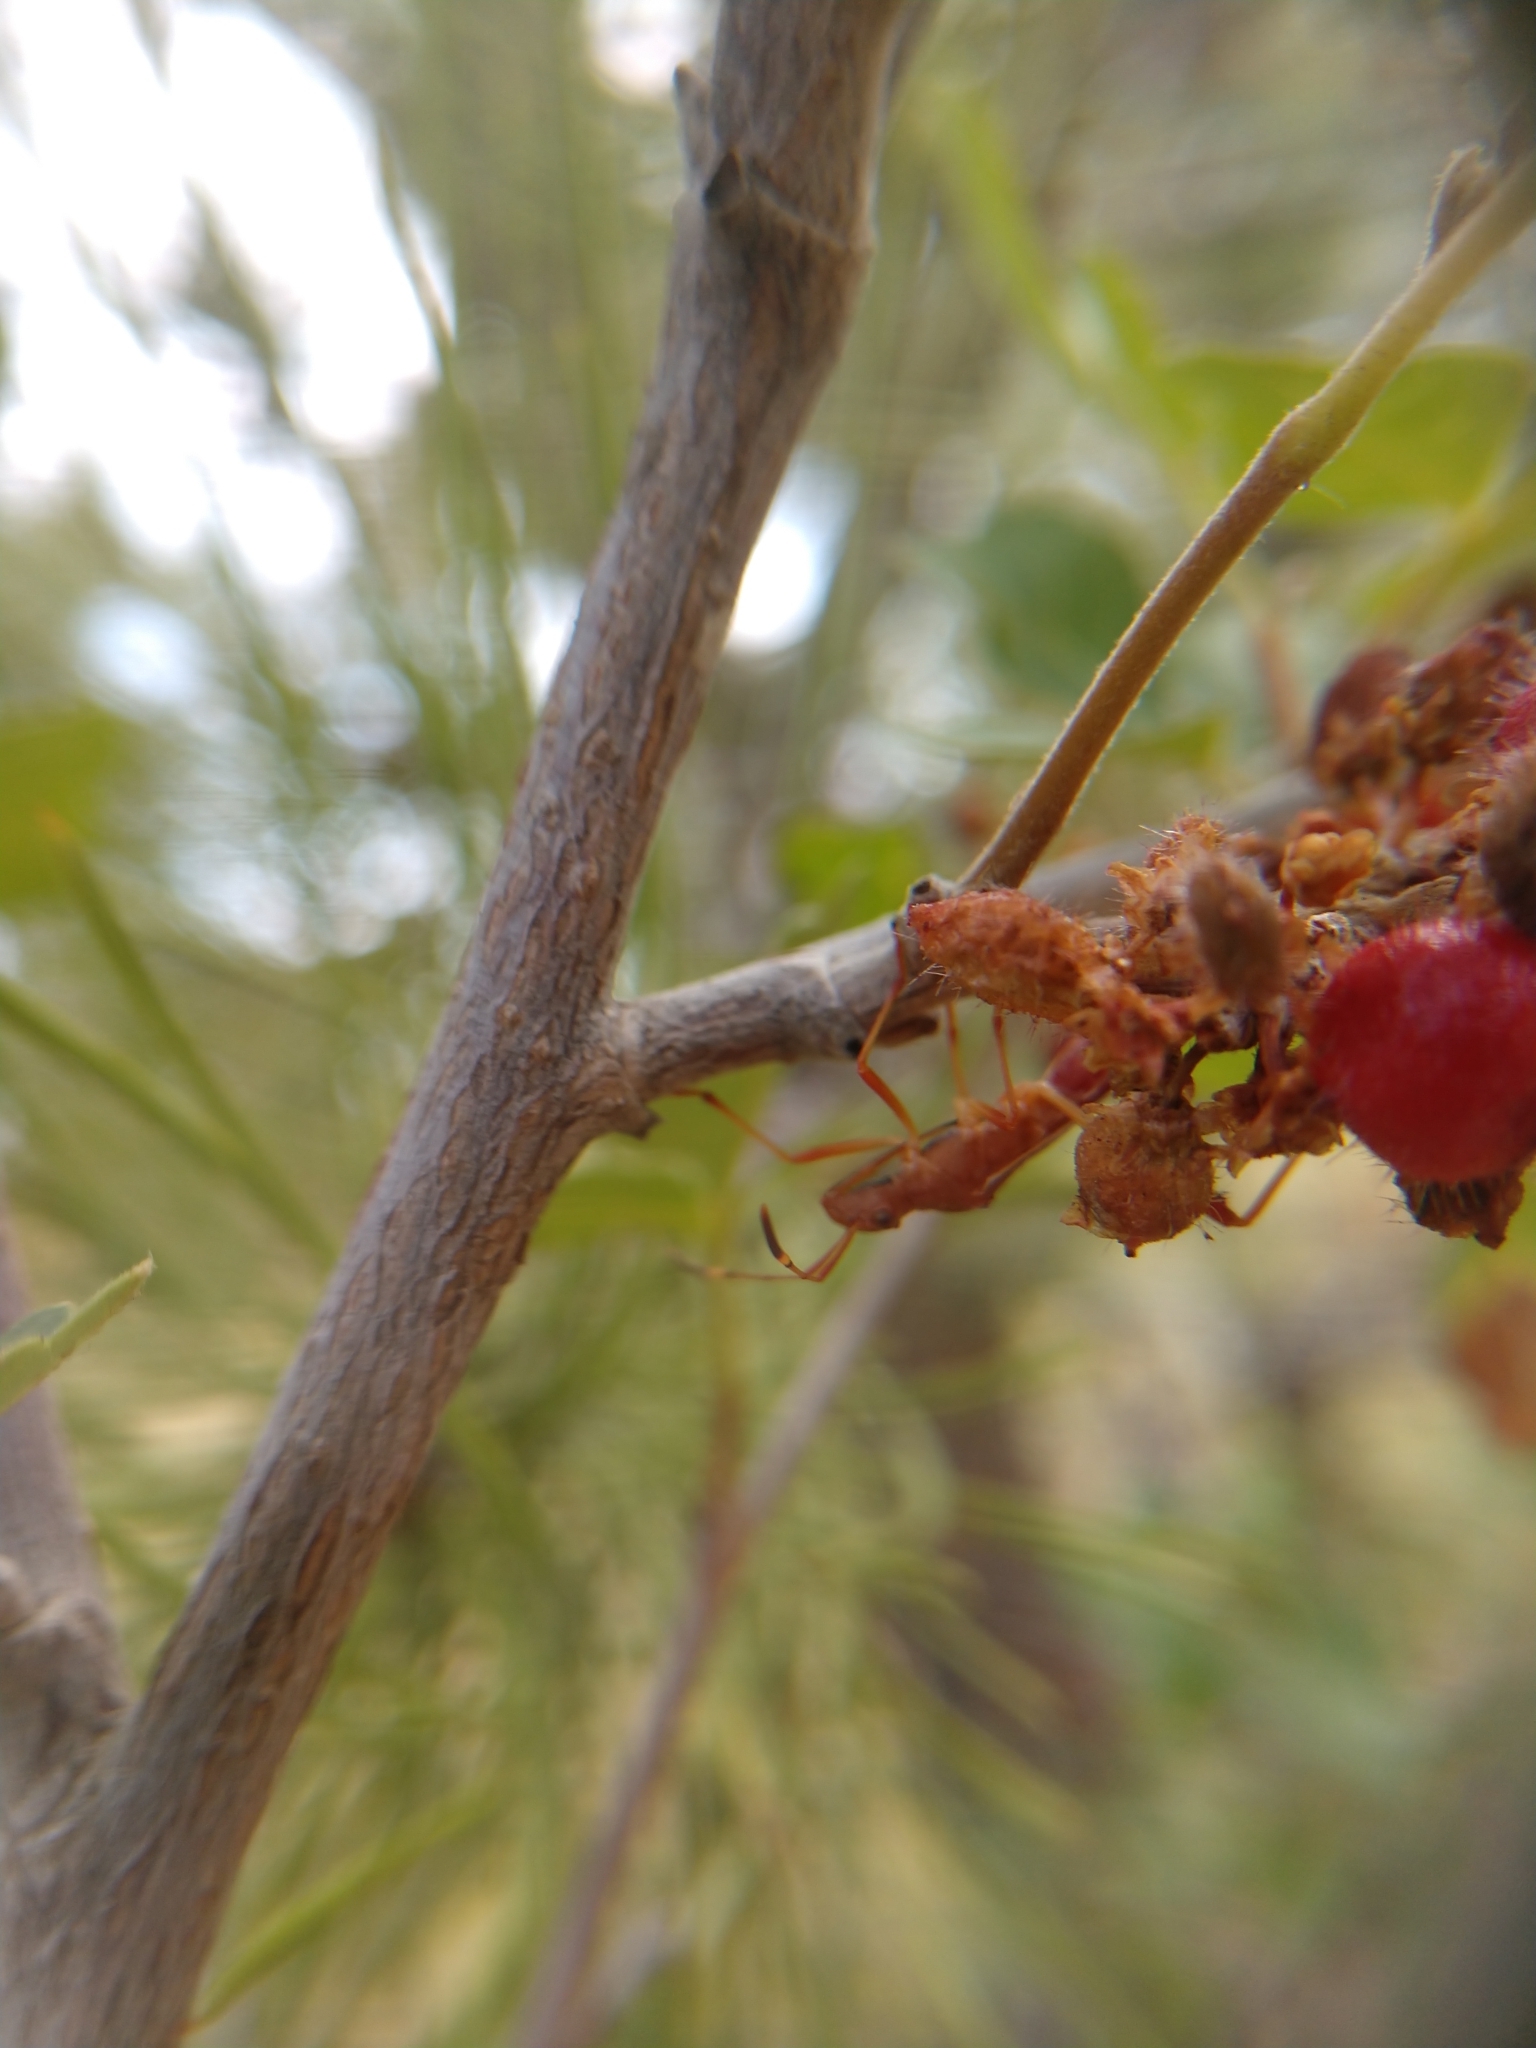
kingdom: Plantae
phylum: Tracheophyta
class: Magnoliopsida
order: Sapindales
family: Anacardiaceae
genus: Rhus
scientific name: Rhus trilobata
